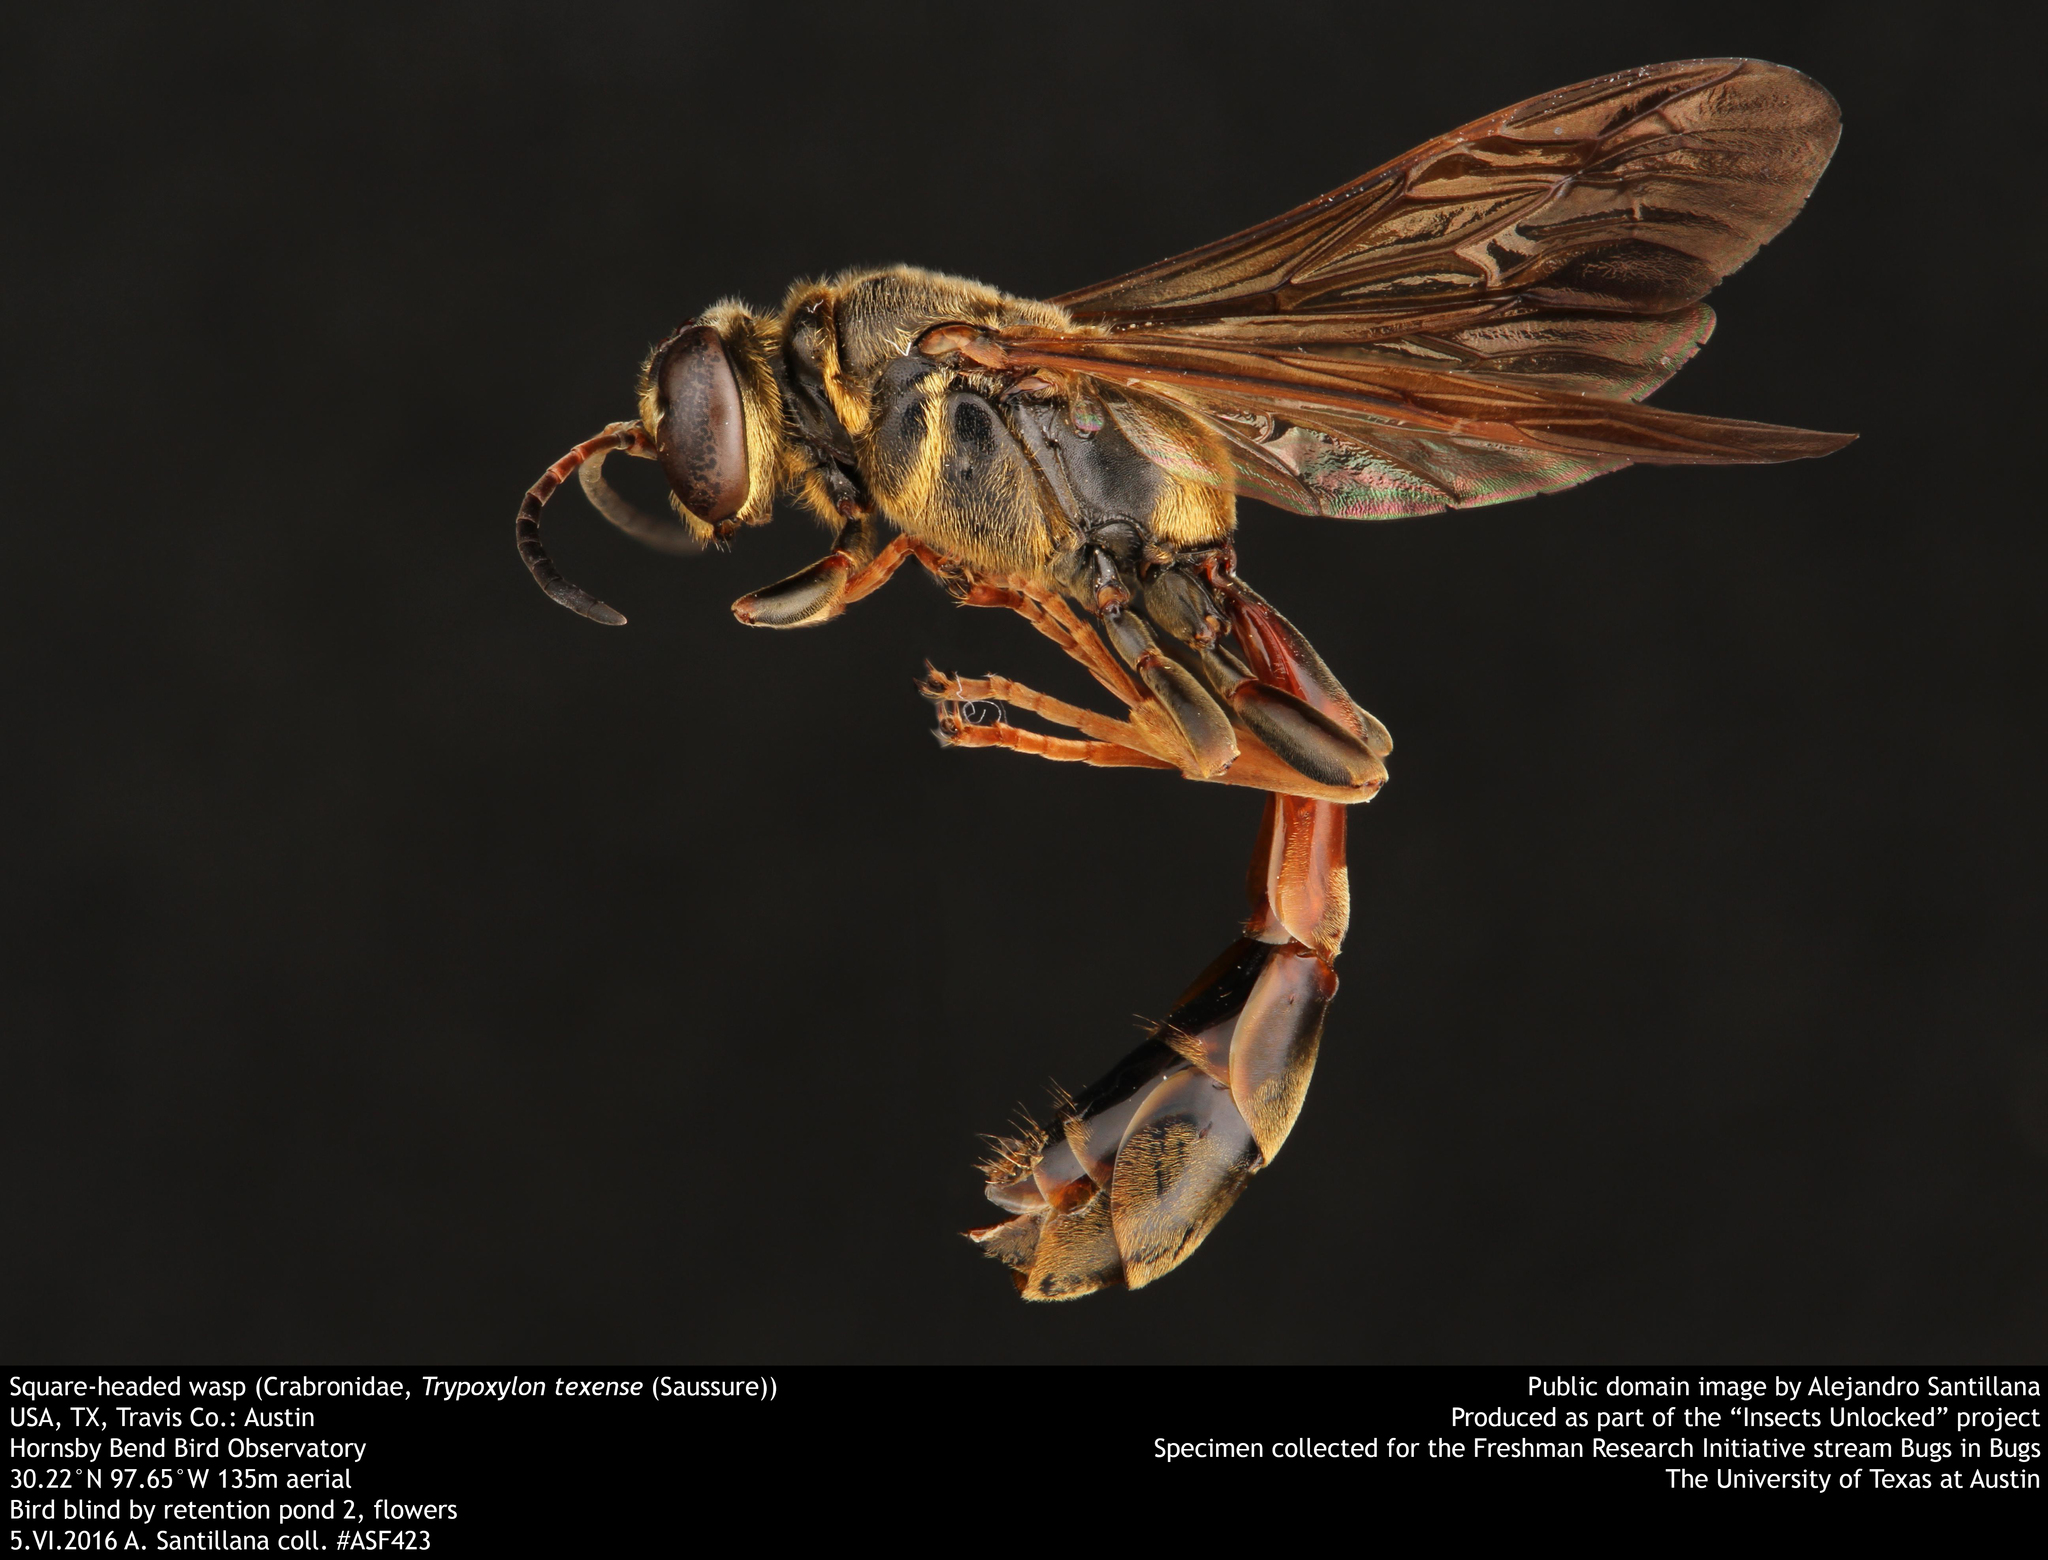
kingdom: Animalia
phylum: Arthropoda
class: Insecta
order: Hymenoptera
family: Crabronidae
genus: Trypoxylon
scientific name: Trypoxylon texense
